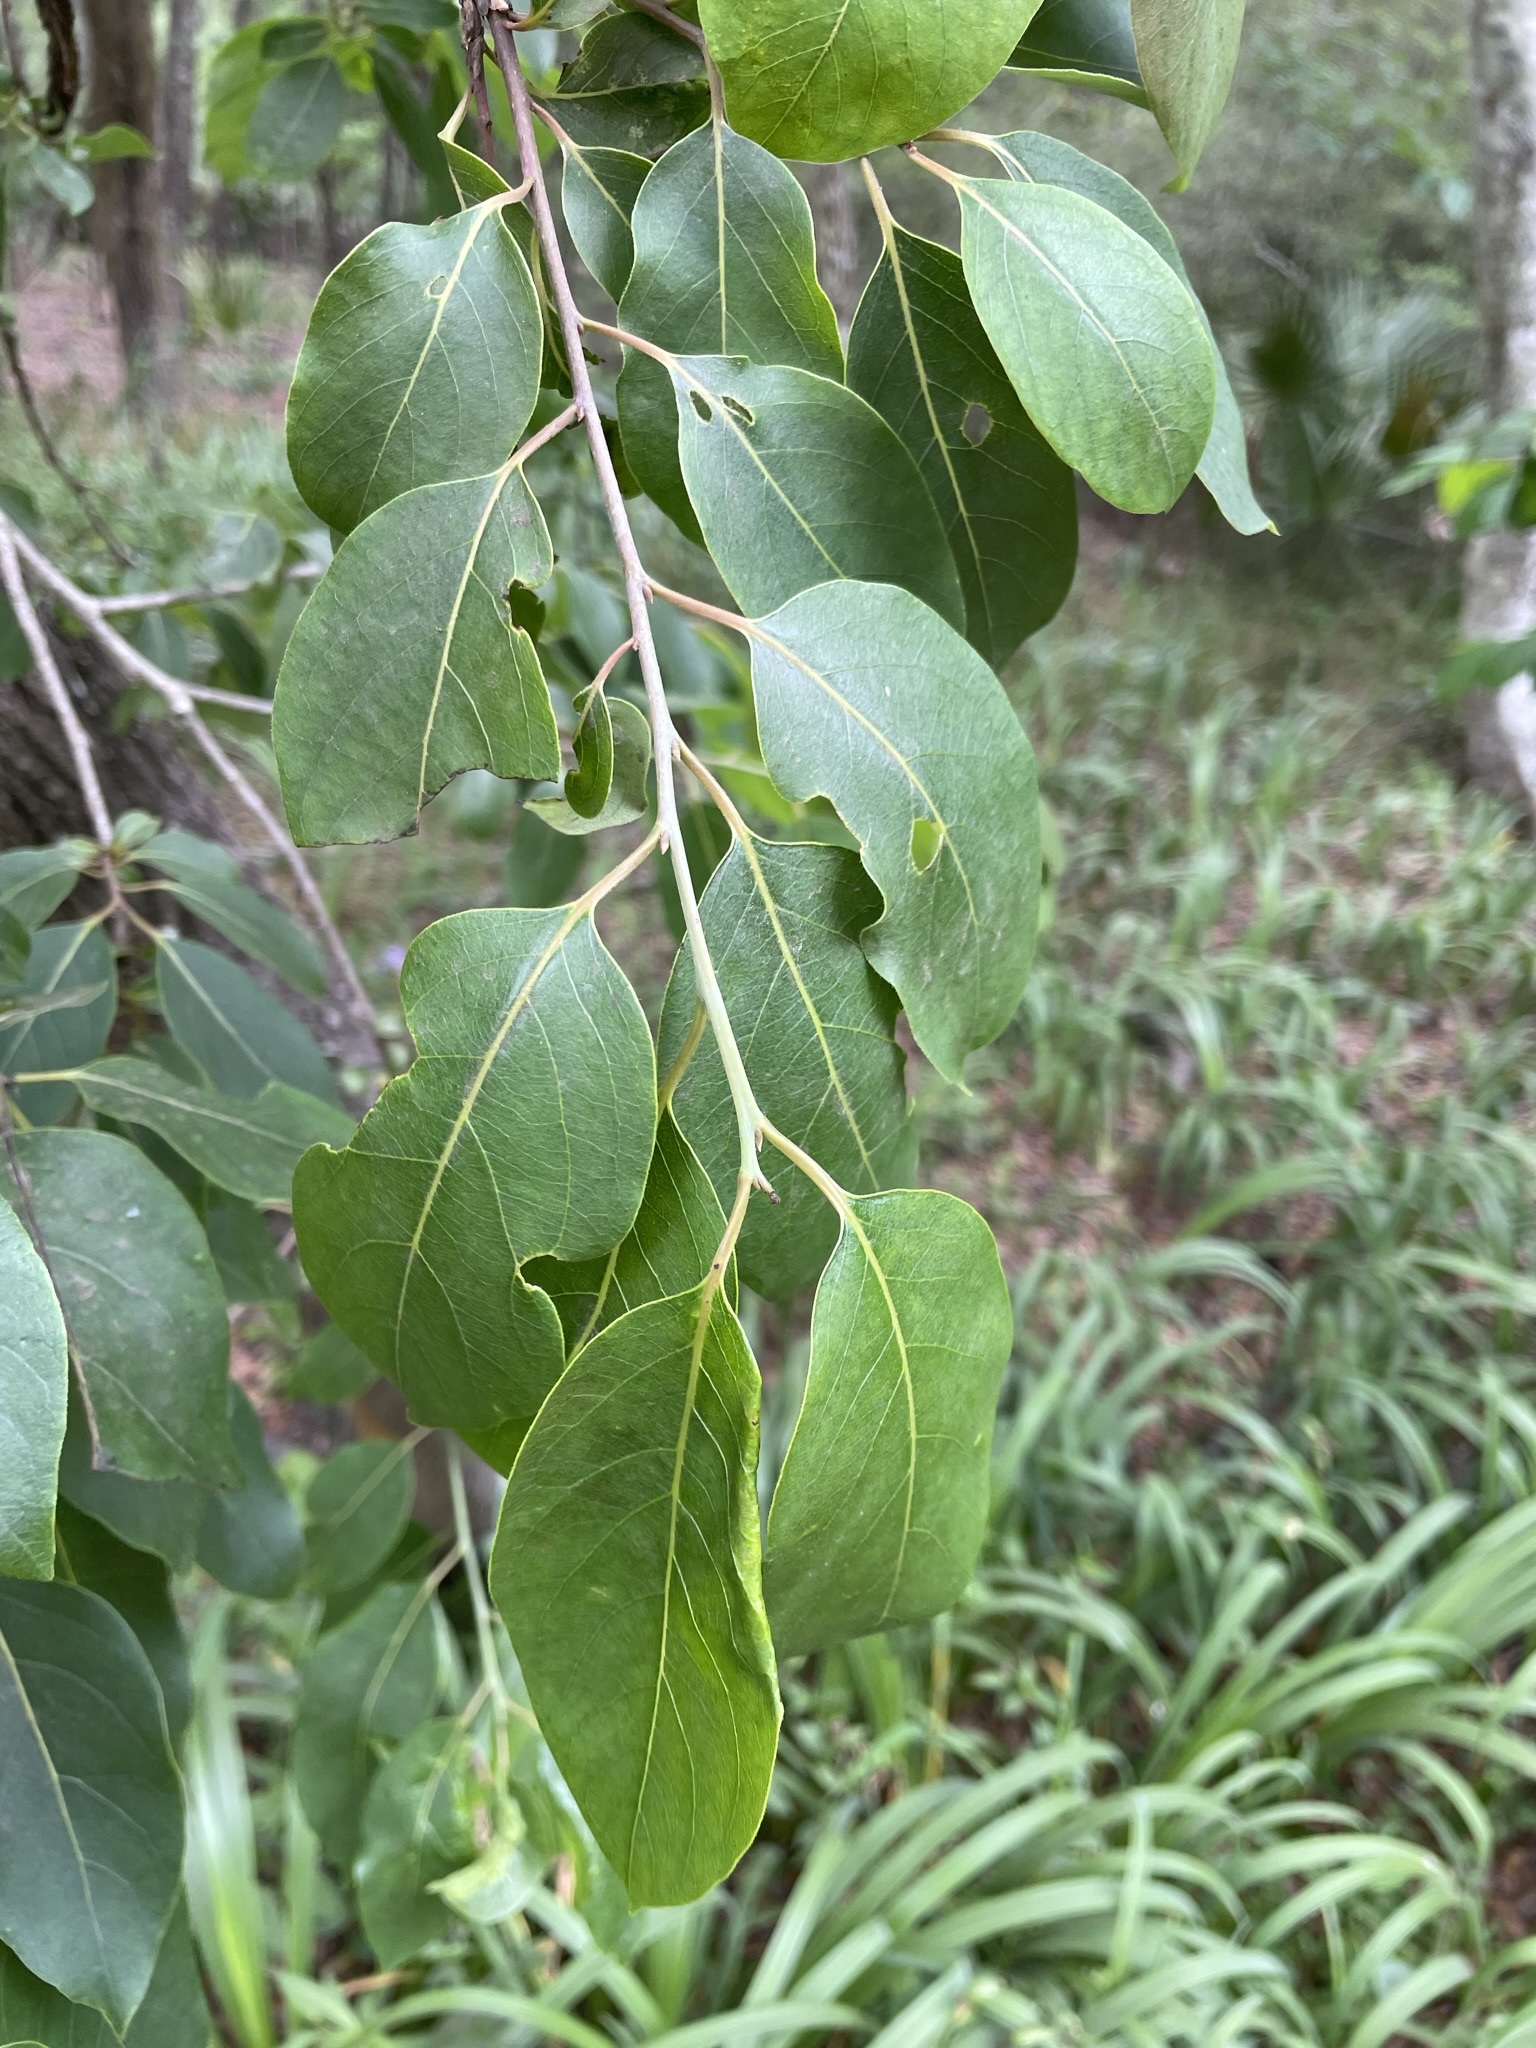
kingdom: Plantae
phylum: Tracheophyta
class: Magnoliopsida
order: Ericales
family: Ebenaceae
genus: Diospyros
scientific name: Diospyros virginiana
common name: Persimmon
